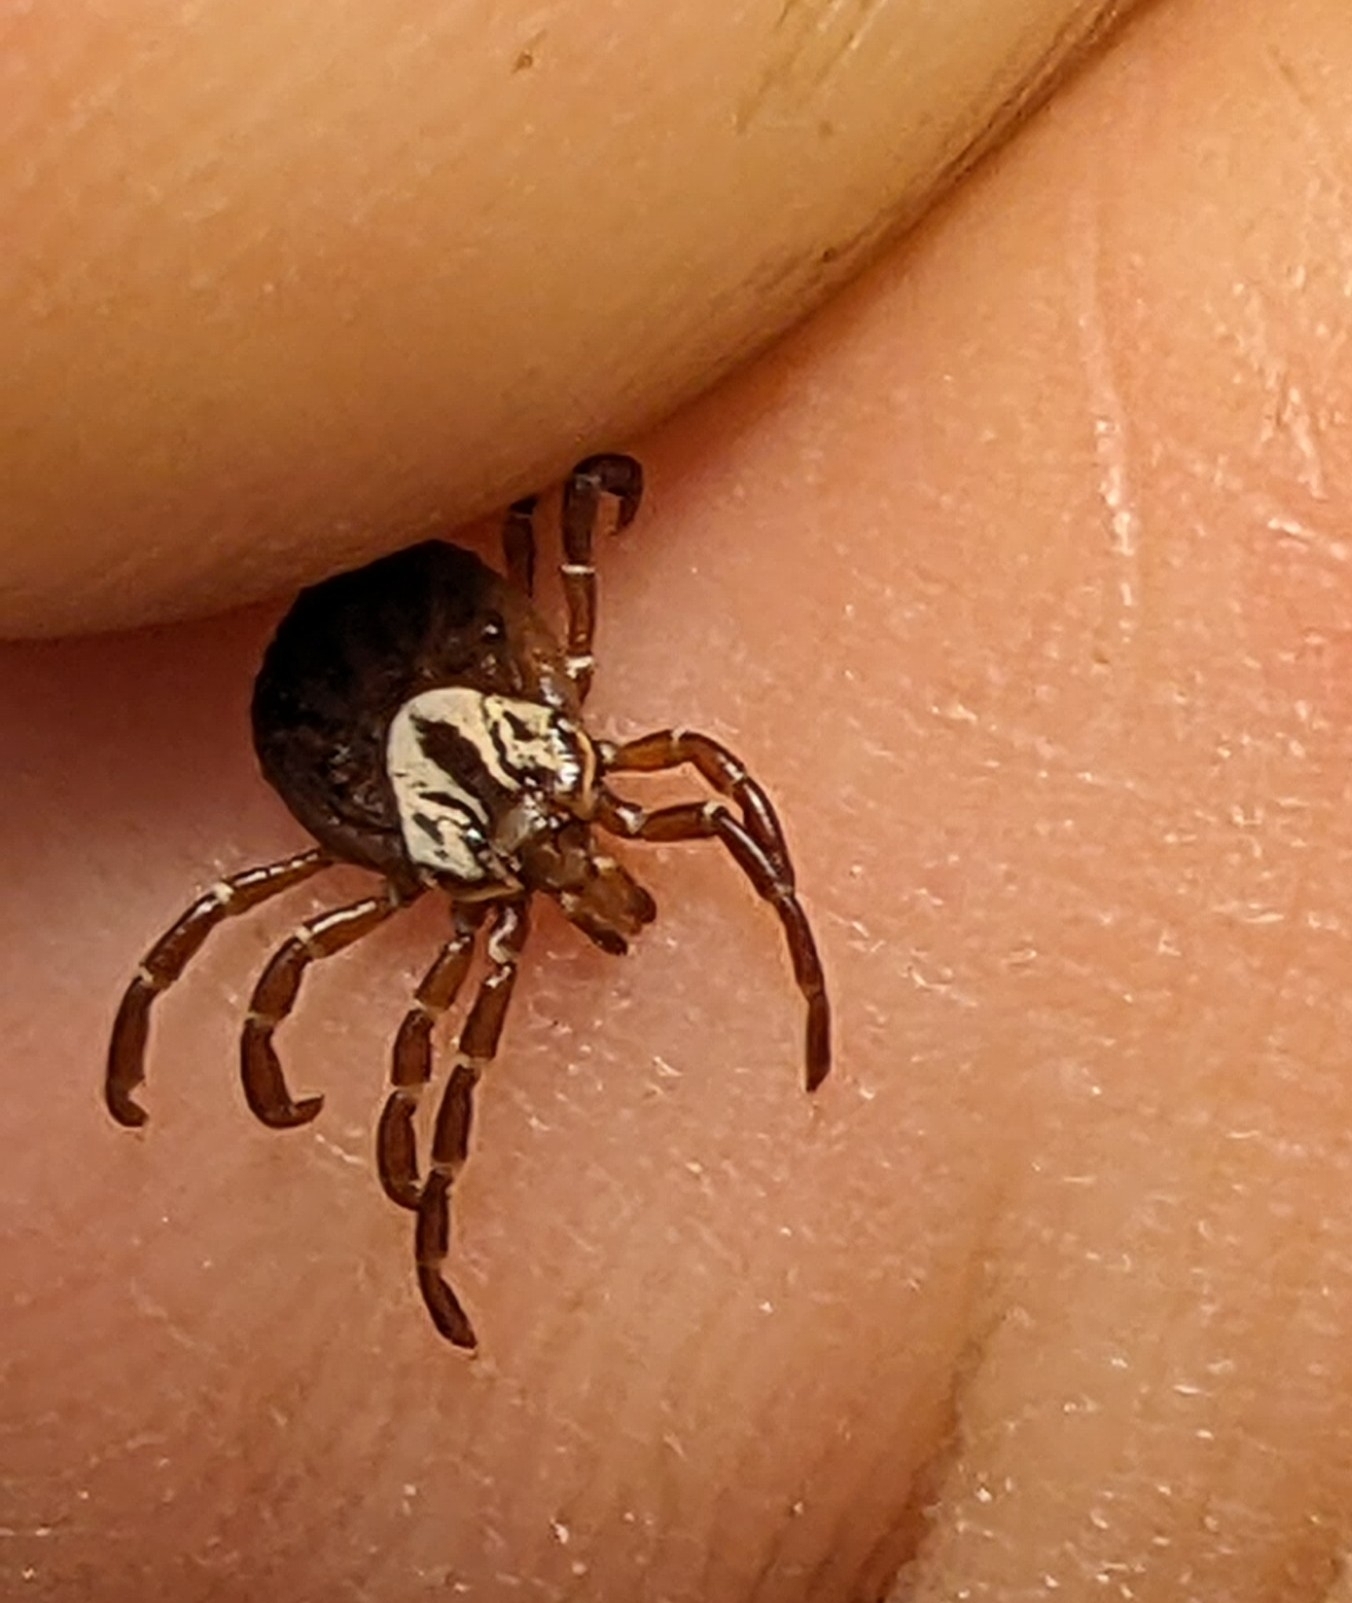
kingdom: Animalia
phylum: Arthropoda
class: Arachnida
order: Ixodida
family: Ixodidae
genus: Amblyomma
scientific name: Amblyomma maculatum
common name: Gulf coast tick
